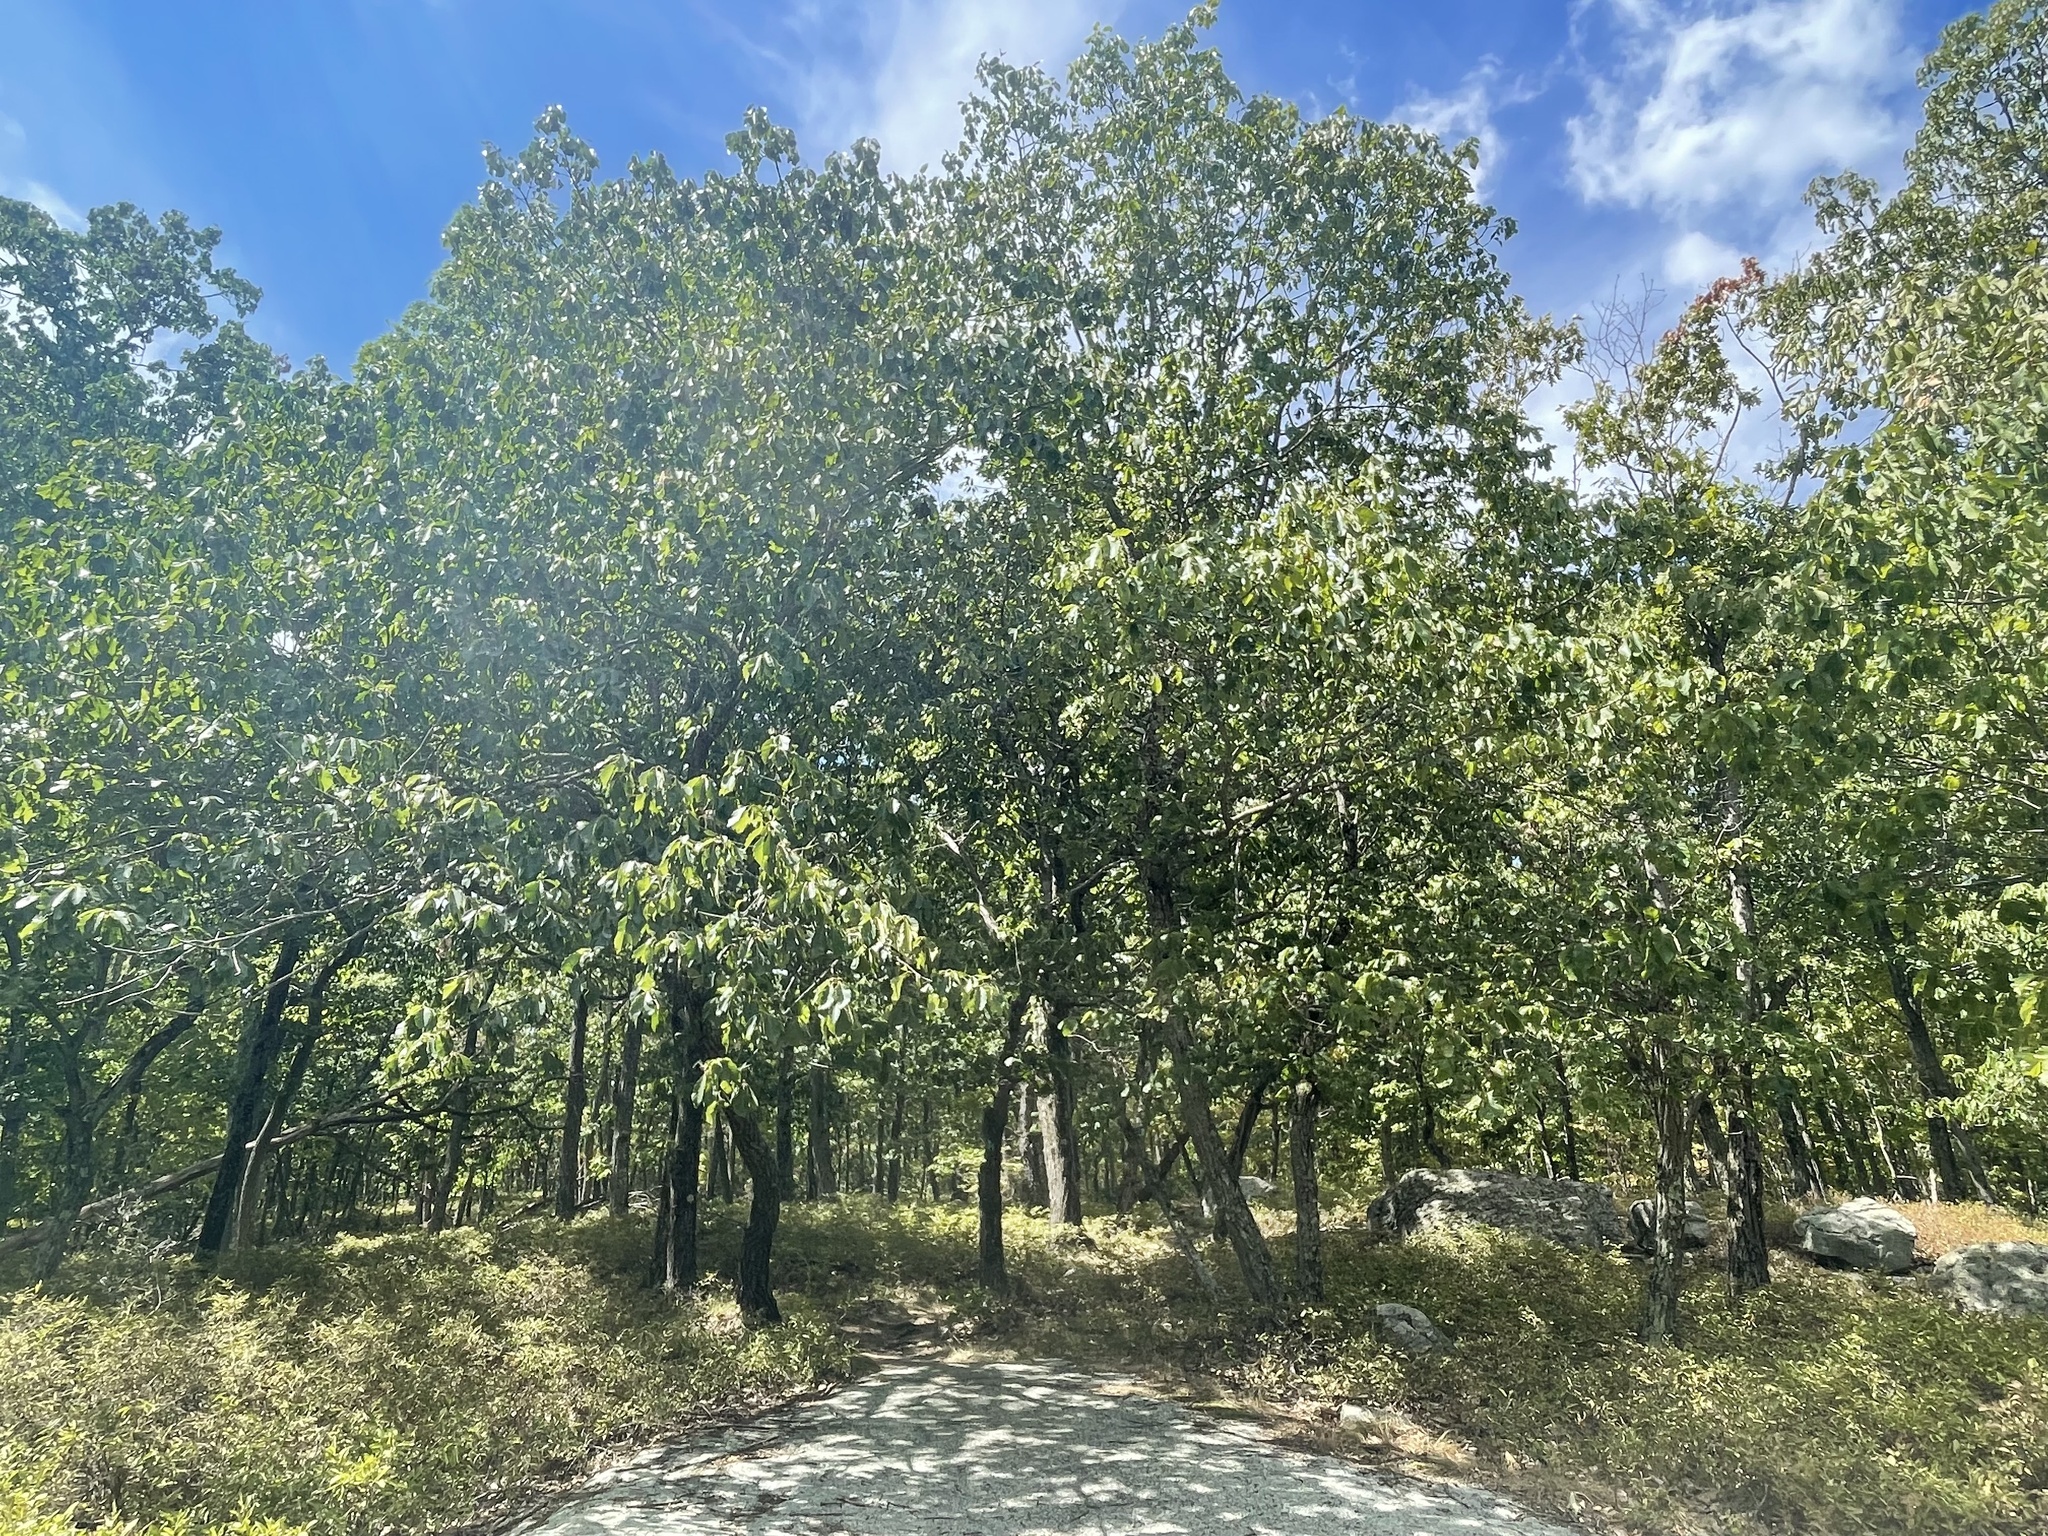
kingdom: Plantae
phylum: Tracheophyta
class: Magnoliopsida
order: Fagales
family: Fagaceae
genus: Quercus
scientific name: Quercus montana
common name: Chestnut oak
